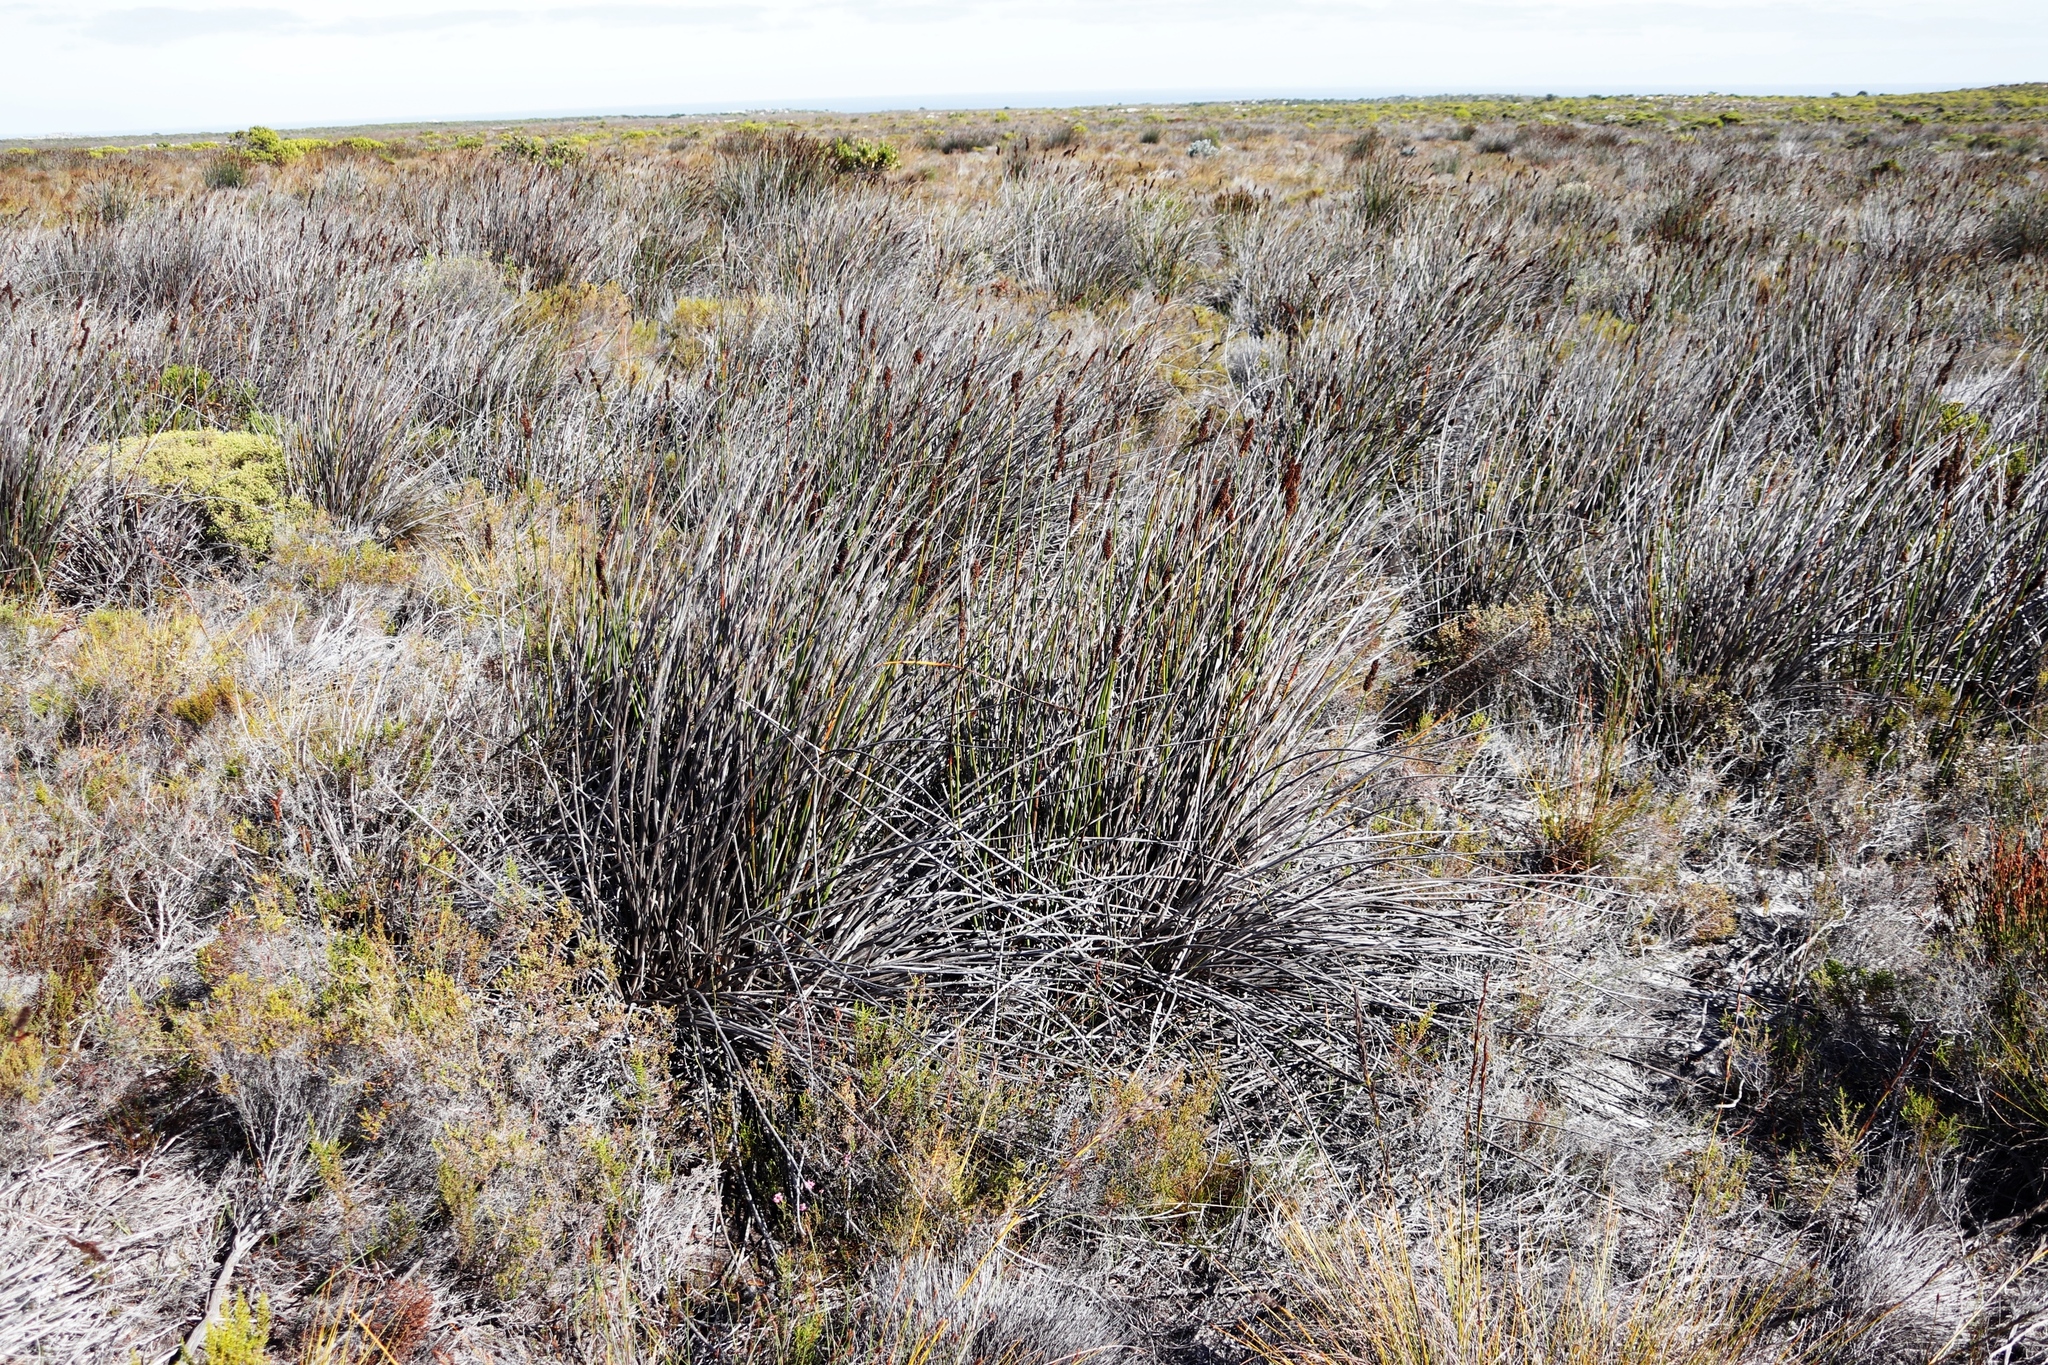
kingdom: Plantae
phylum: Tracheophyta
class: Liliopsida
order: Poales
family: Restionaceae
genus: Elegia
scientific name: Elegia cuspidata
